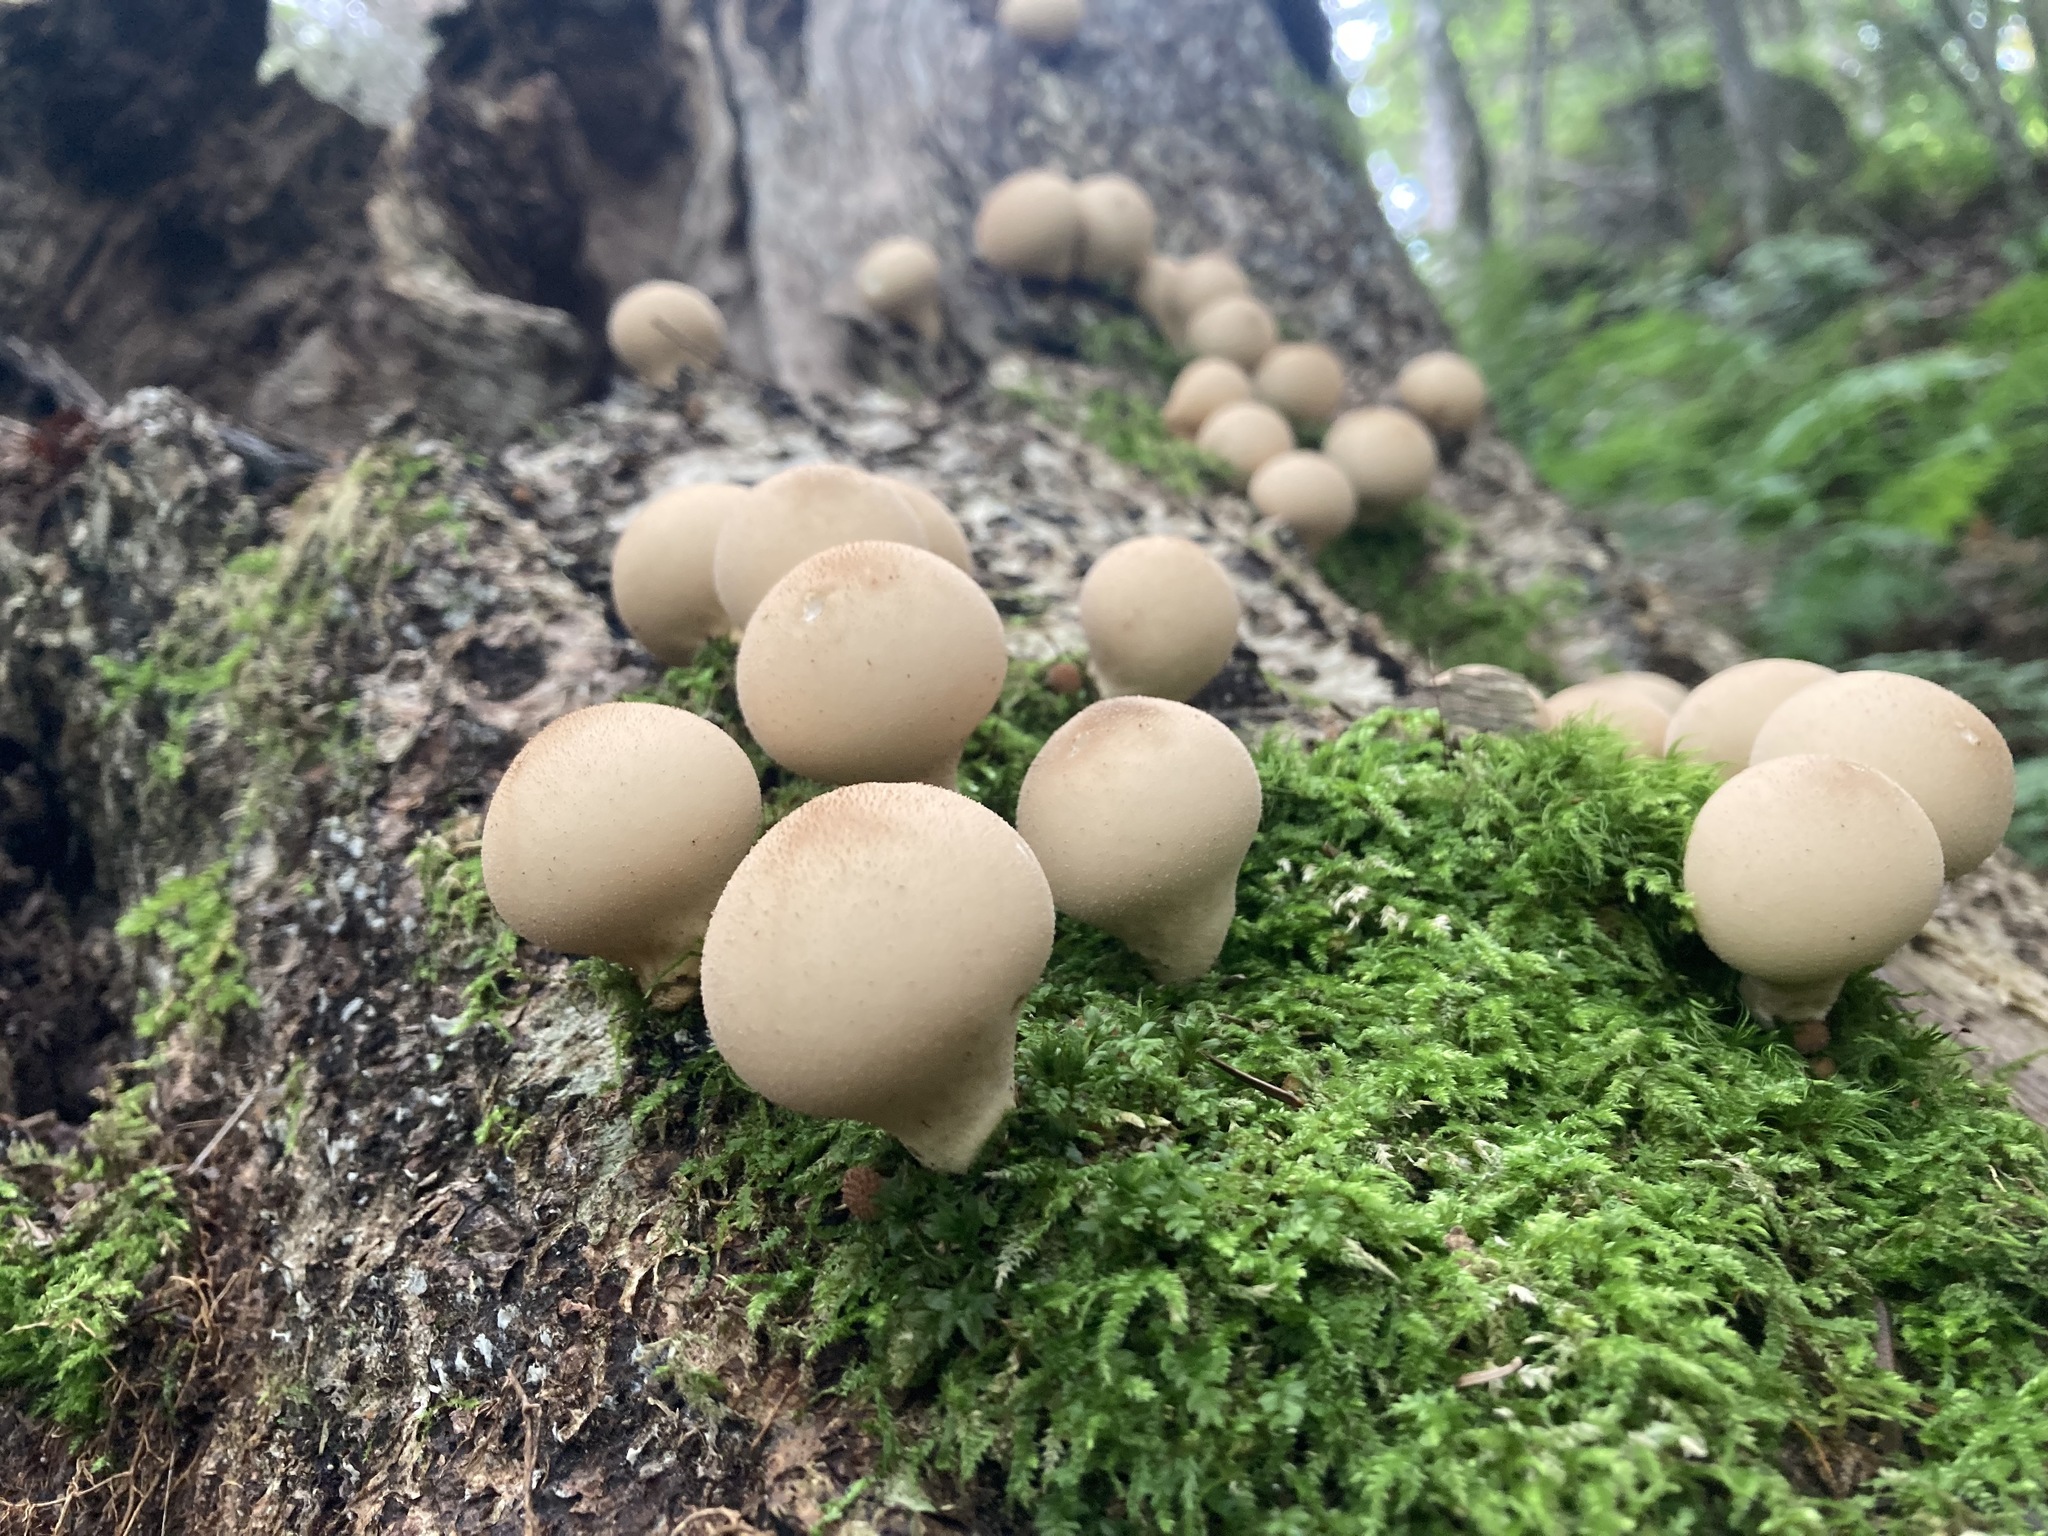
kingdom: Fungi
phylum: Basidiomycota
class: Agaricomycetes
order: Agaricales
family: Lycoperdaceae
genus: Apioperdon
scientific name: Apioperdon pyriforme
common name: Pear-shaped puffball
